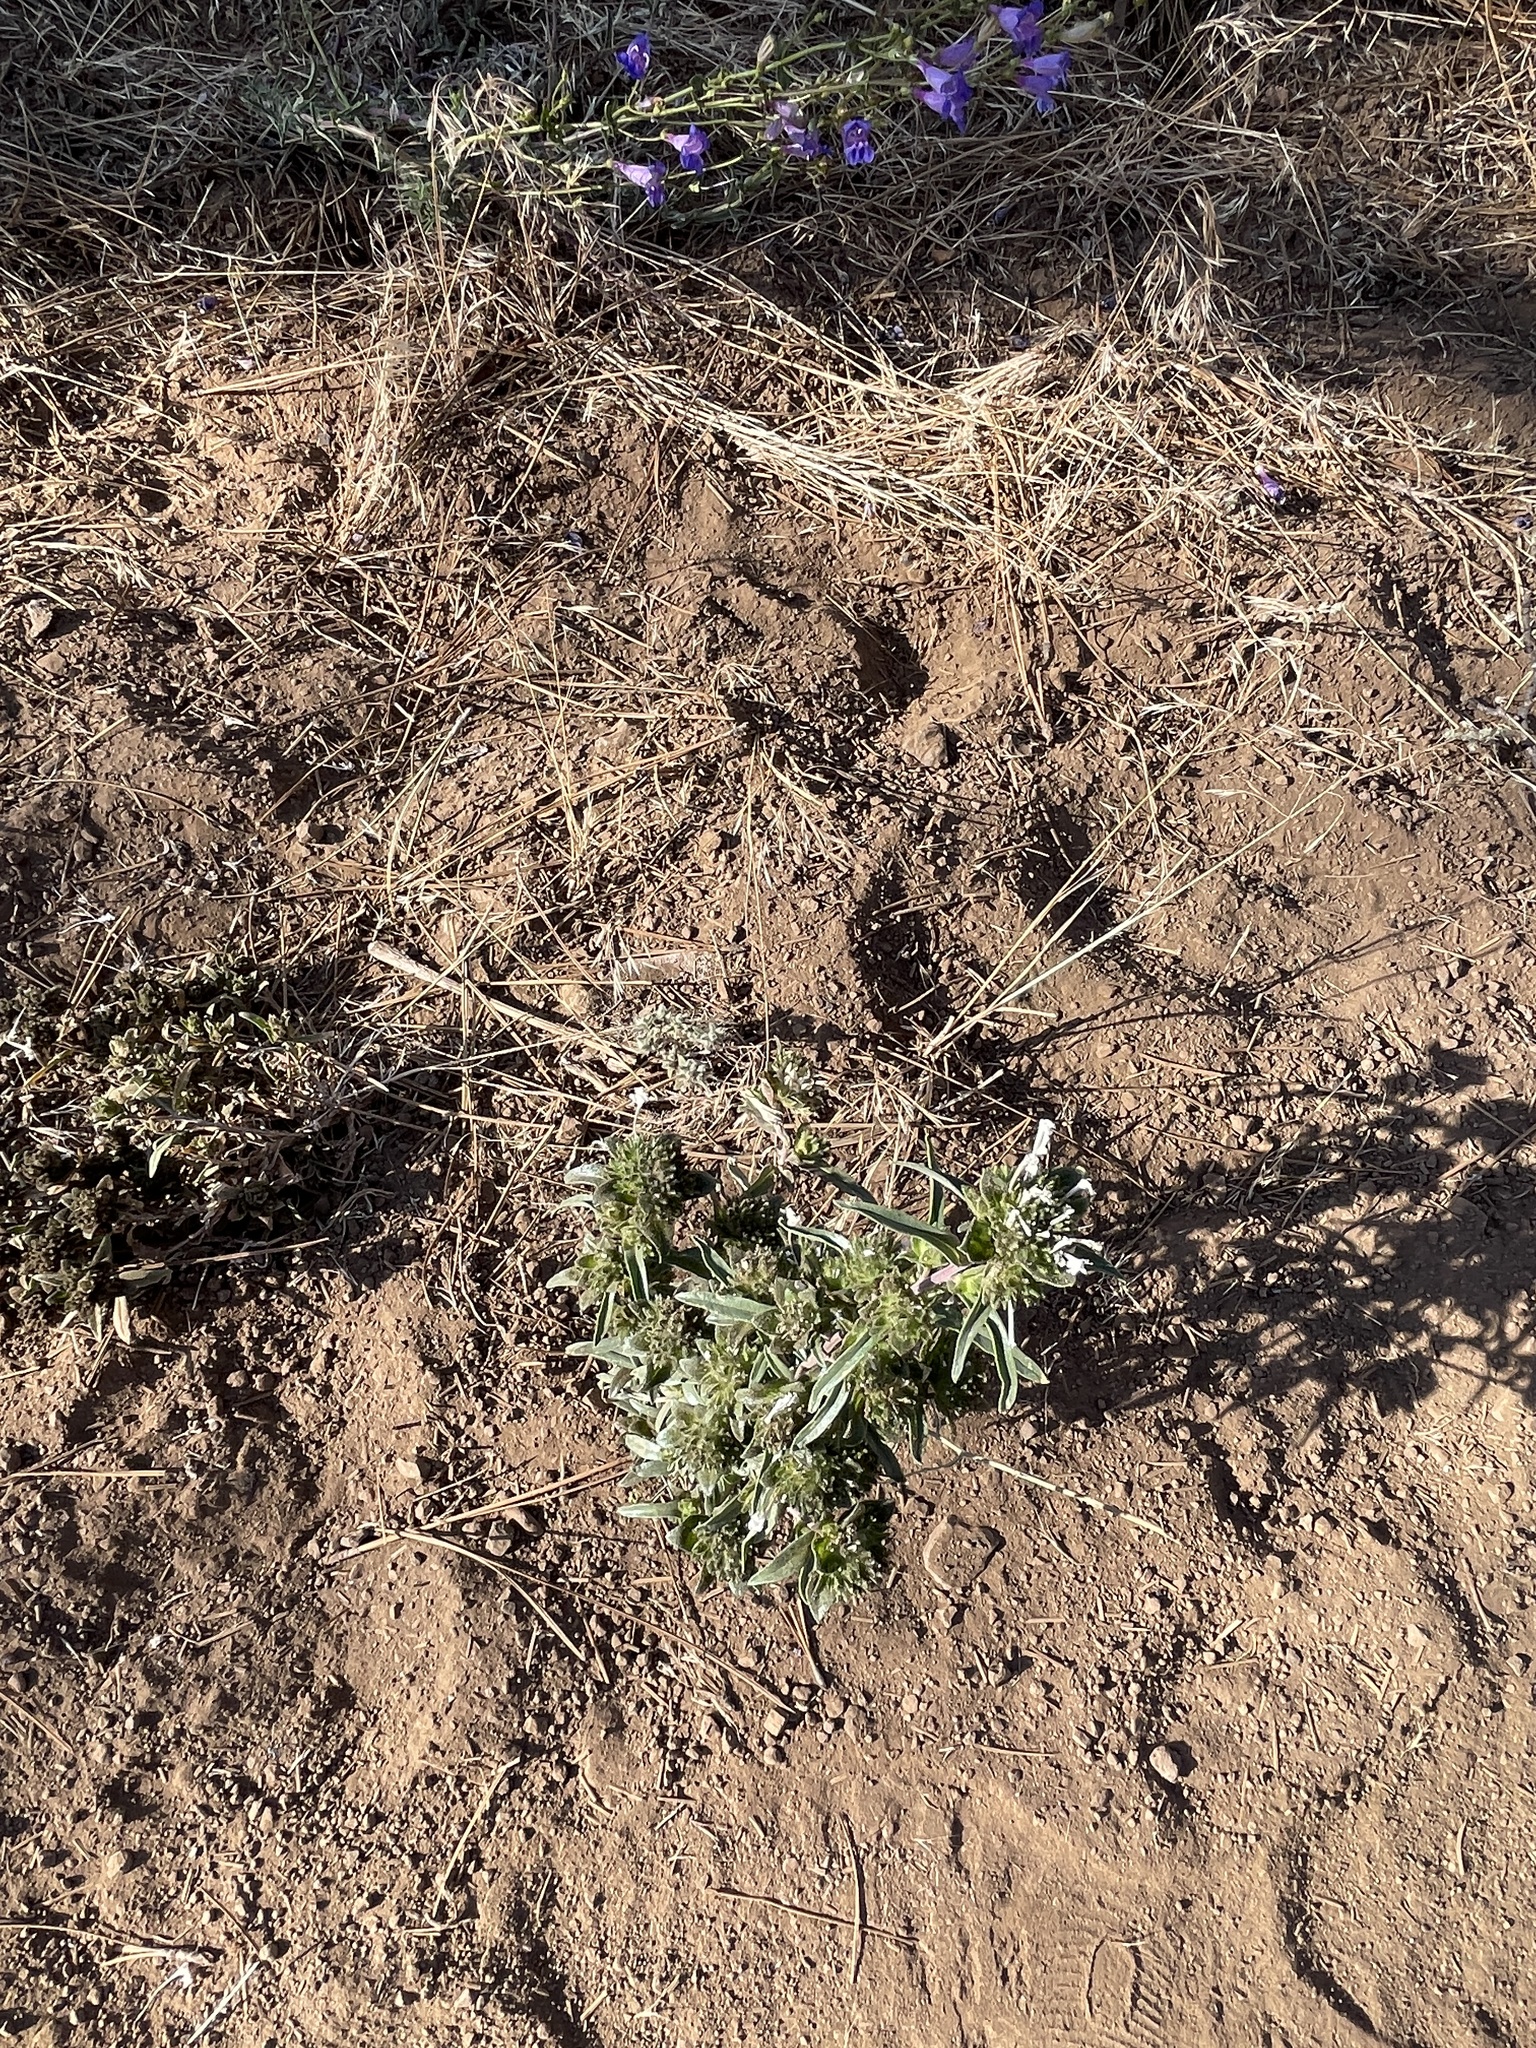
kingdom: Plantae
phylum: Tracheophyta
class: Magnoliopsida
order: Ericales
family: Polemoniaceae
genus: Collomia
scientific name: Collomia grandiflora
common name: California strawflower
